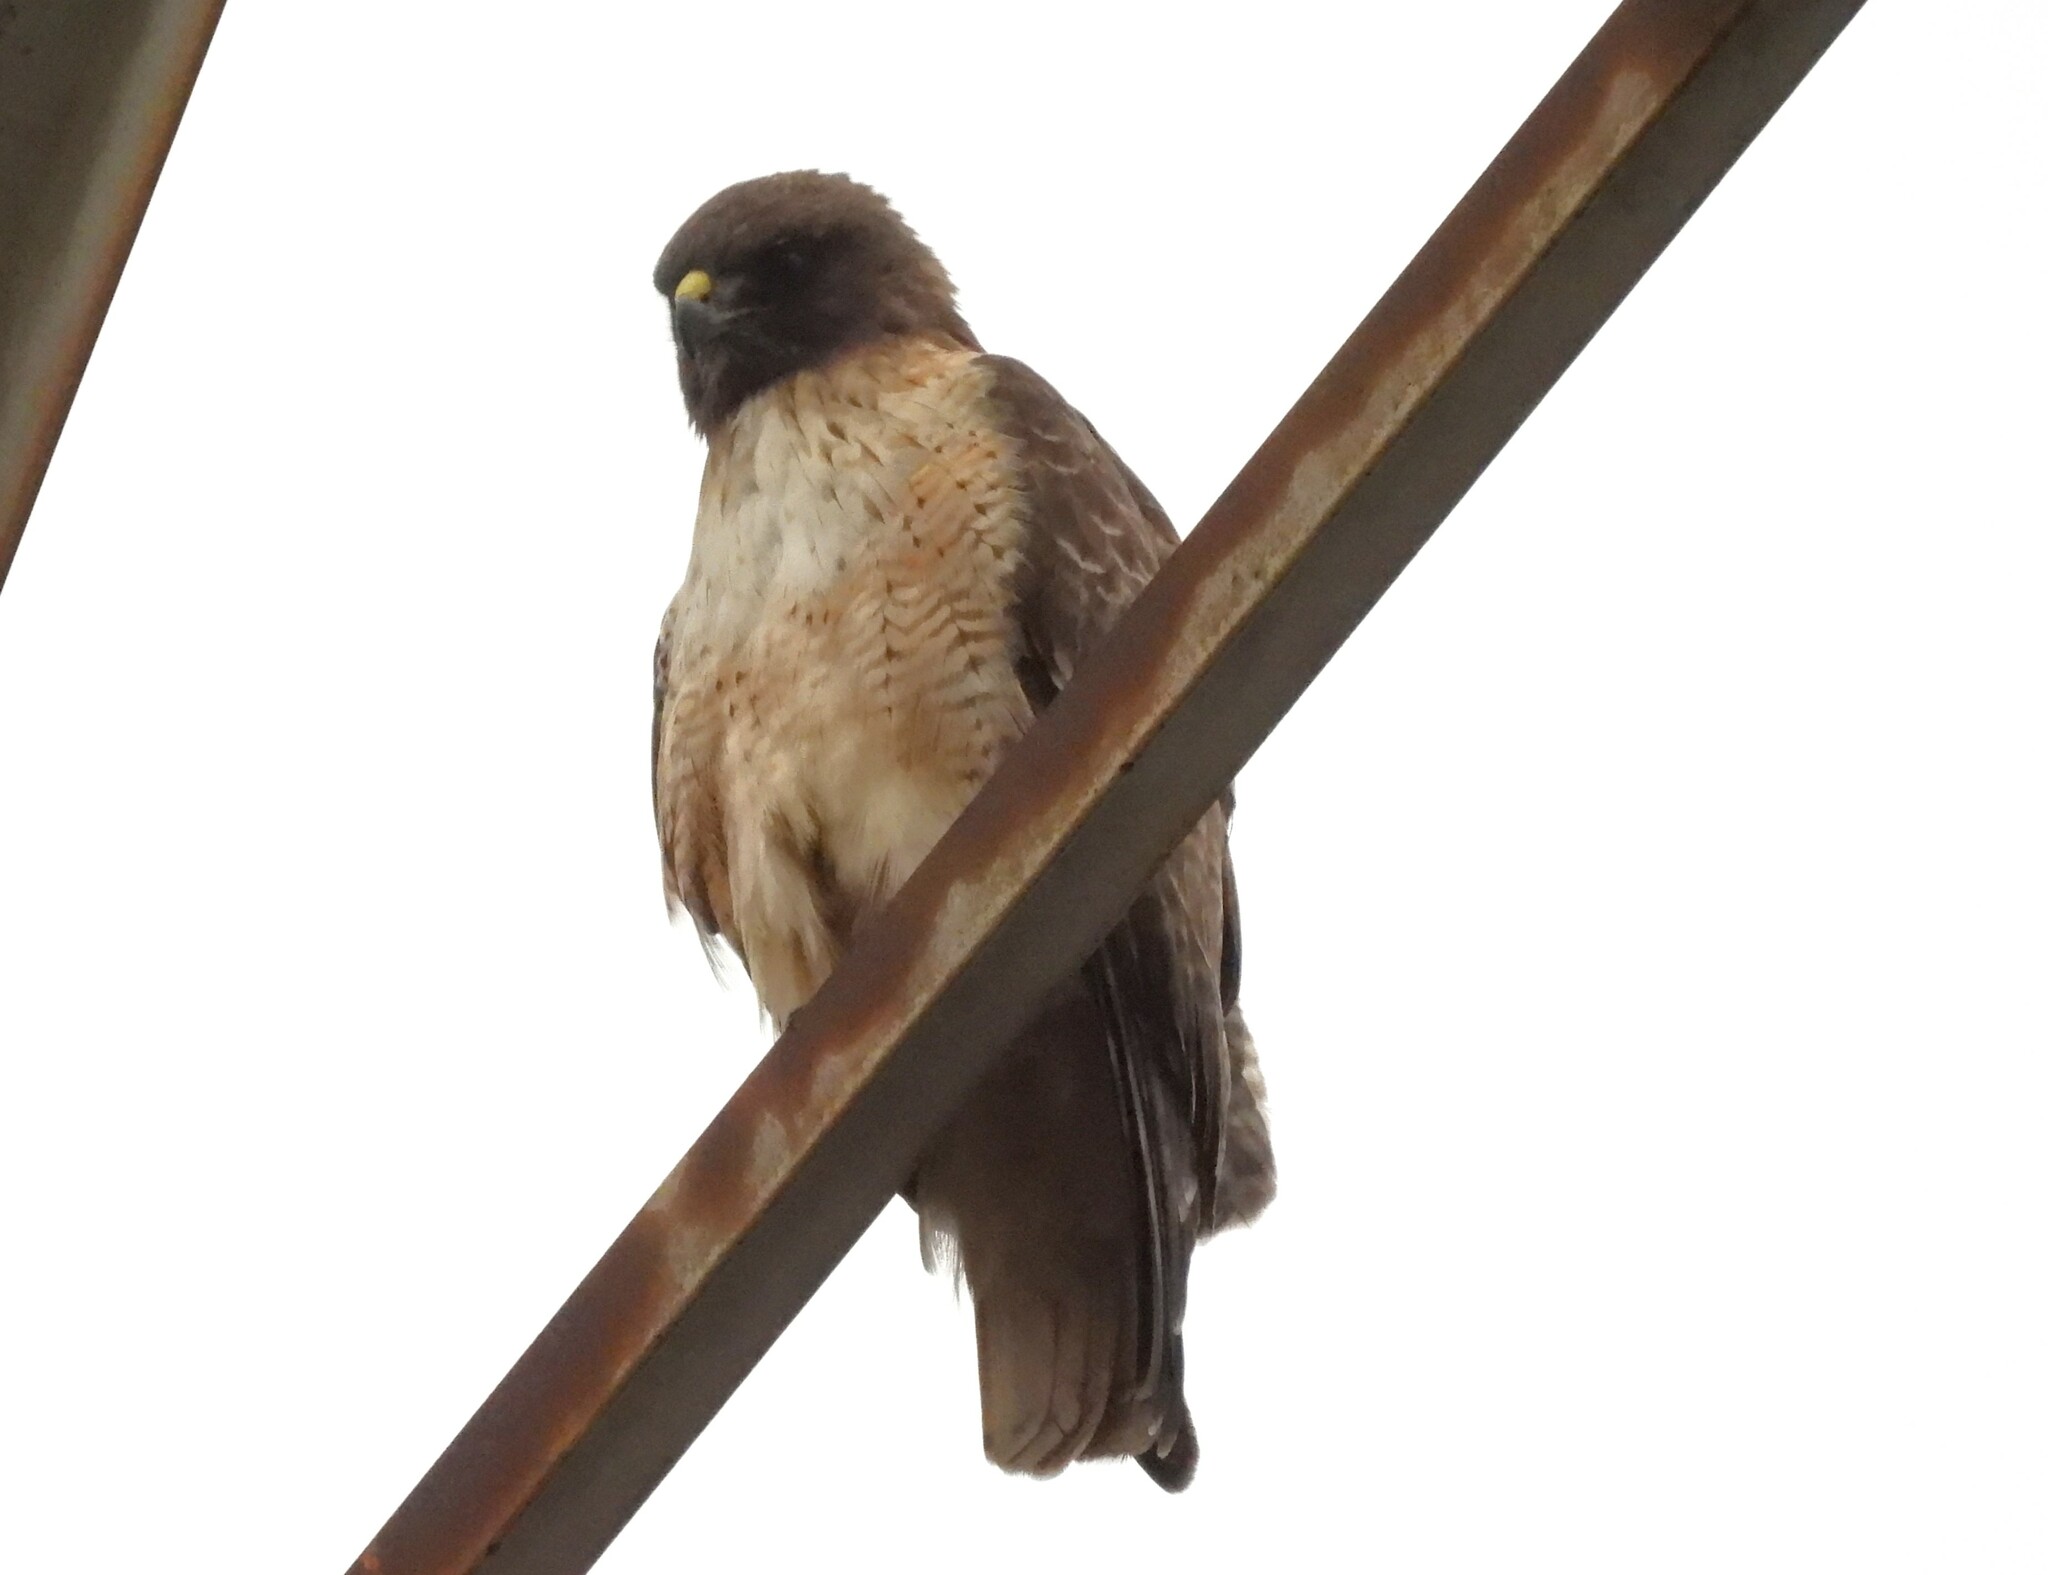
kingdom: Animalia
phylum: Chordata
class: Aves
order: Accipitriformes
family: Accipitridae
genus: Buteo
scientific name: Buteo jamaicensis
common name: Red-tailed hawk
